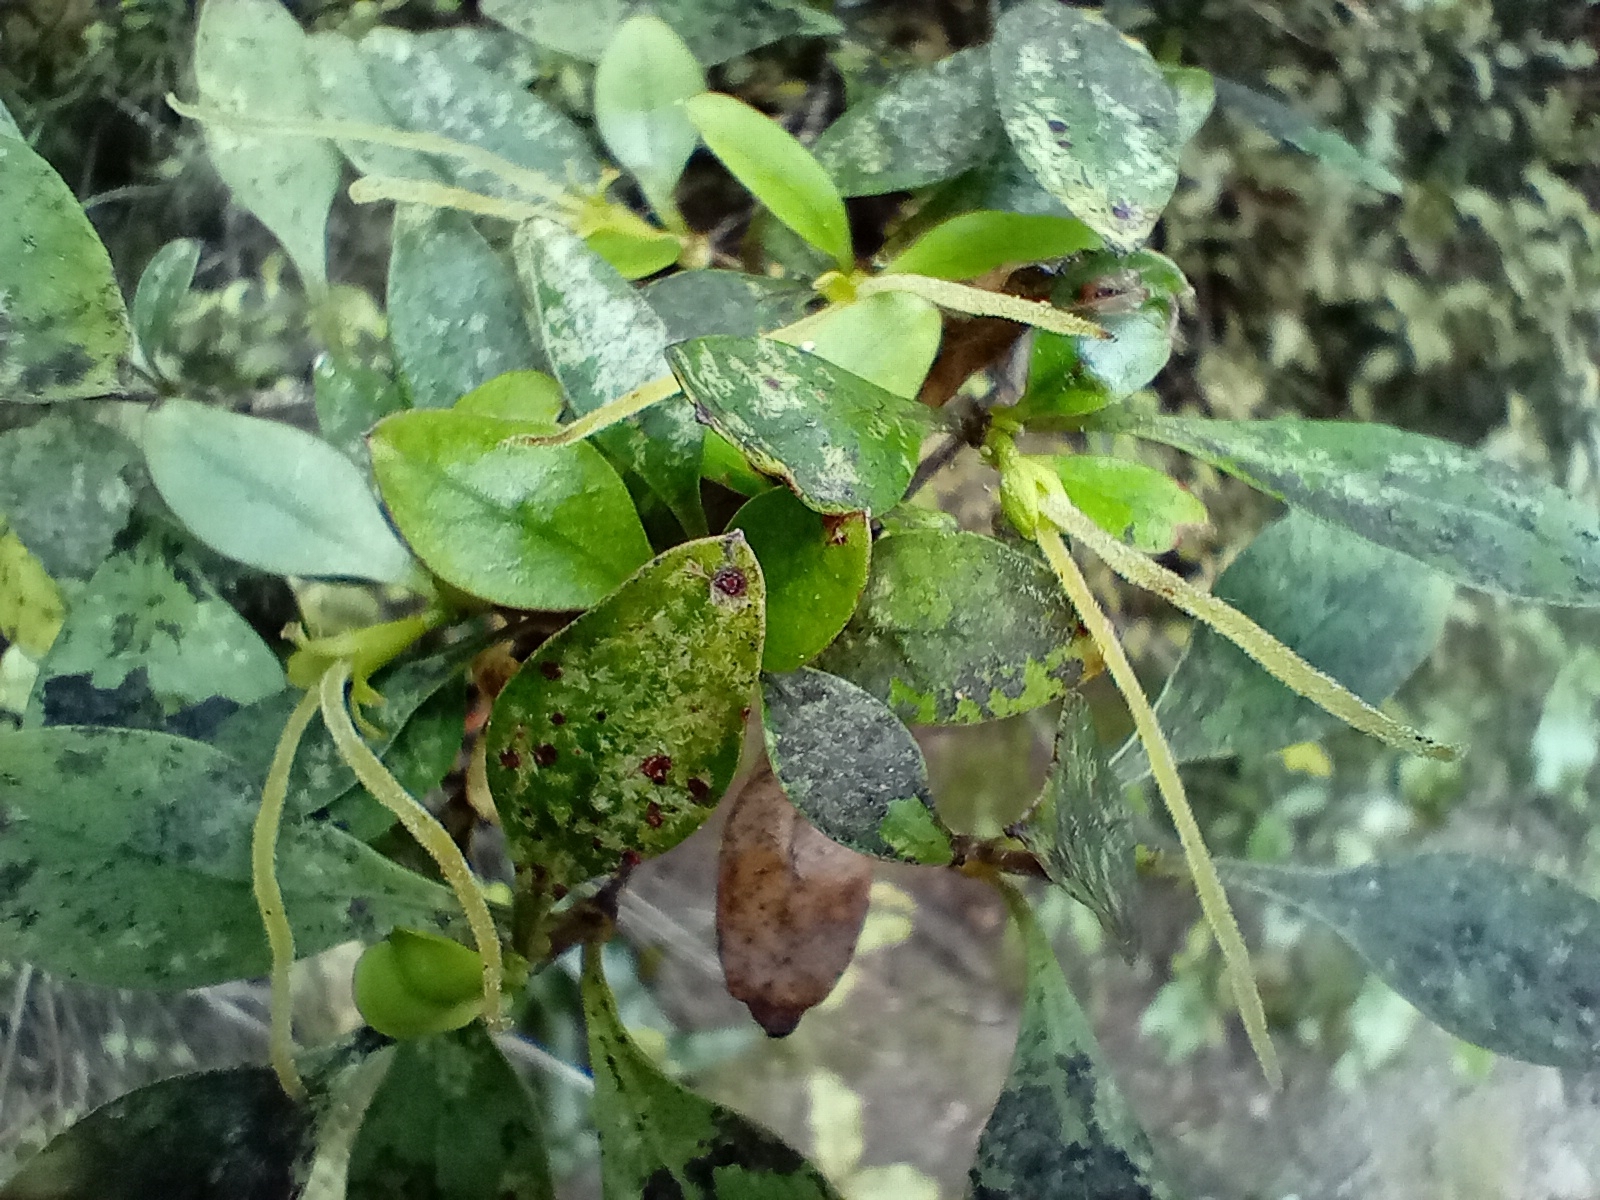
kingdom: Plantae
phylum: Tracheophyta
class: Magnoliopsida
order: Gentianales
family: Rubiaceae
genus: Coprosma
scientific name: Coprosma foetidissima
